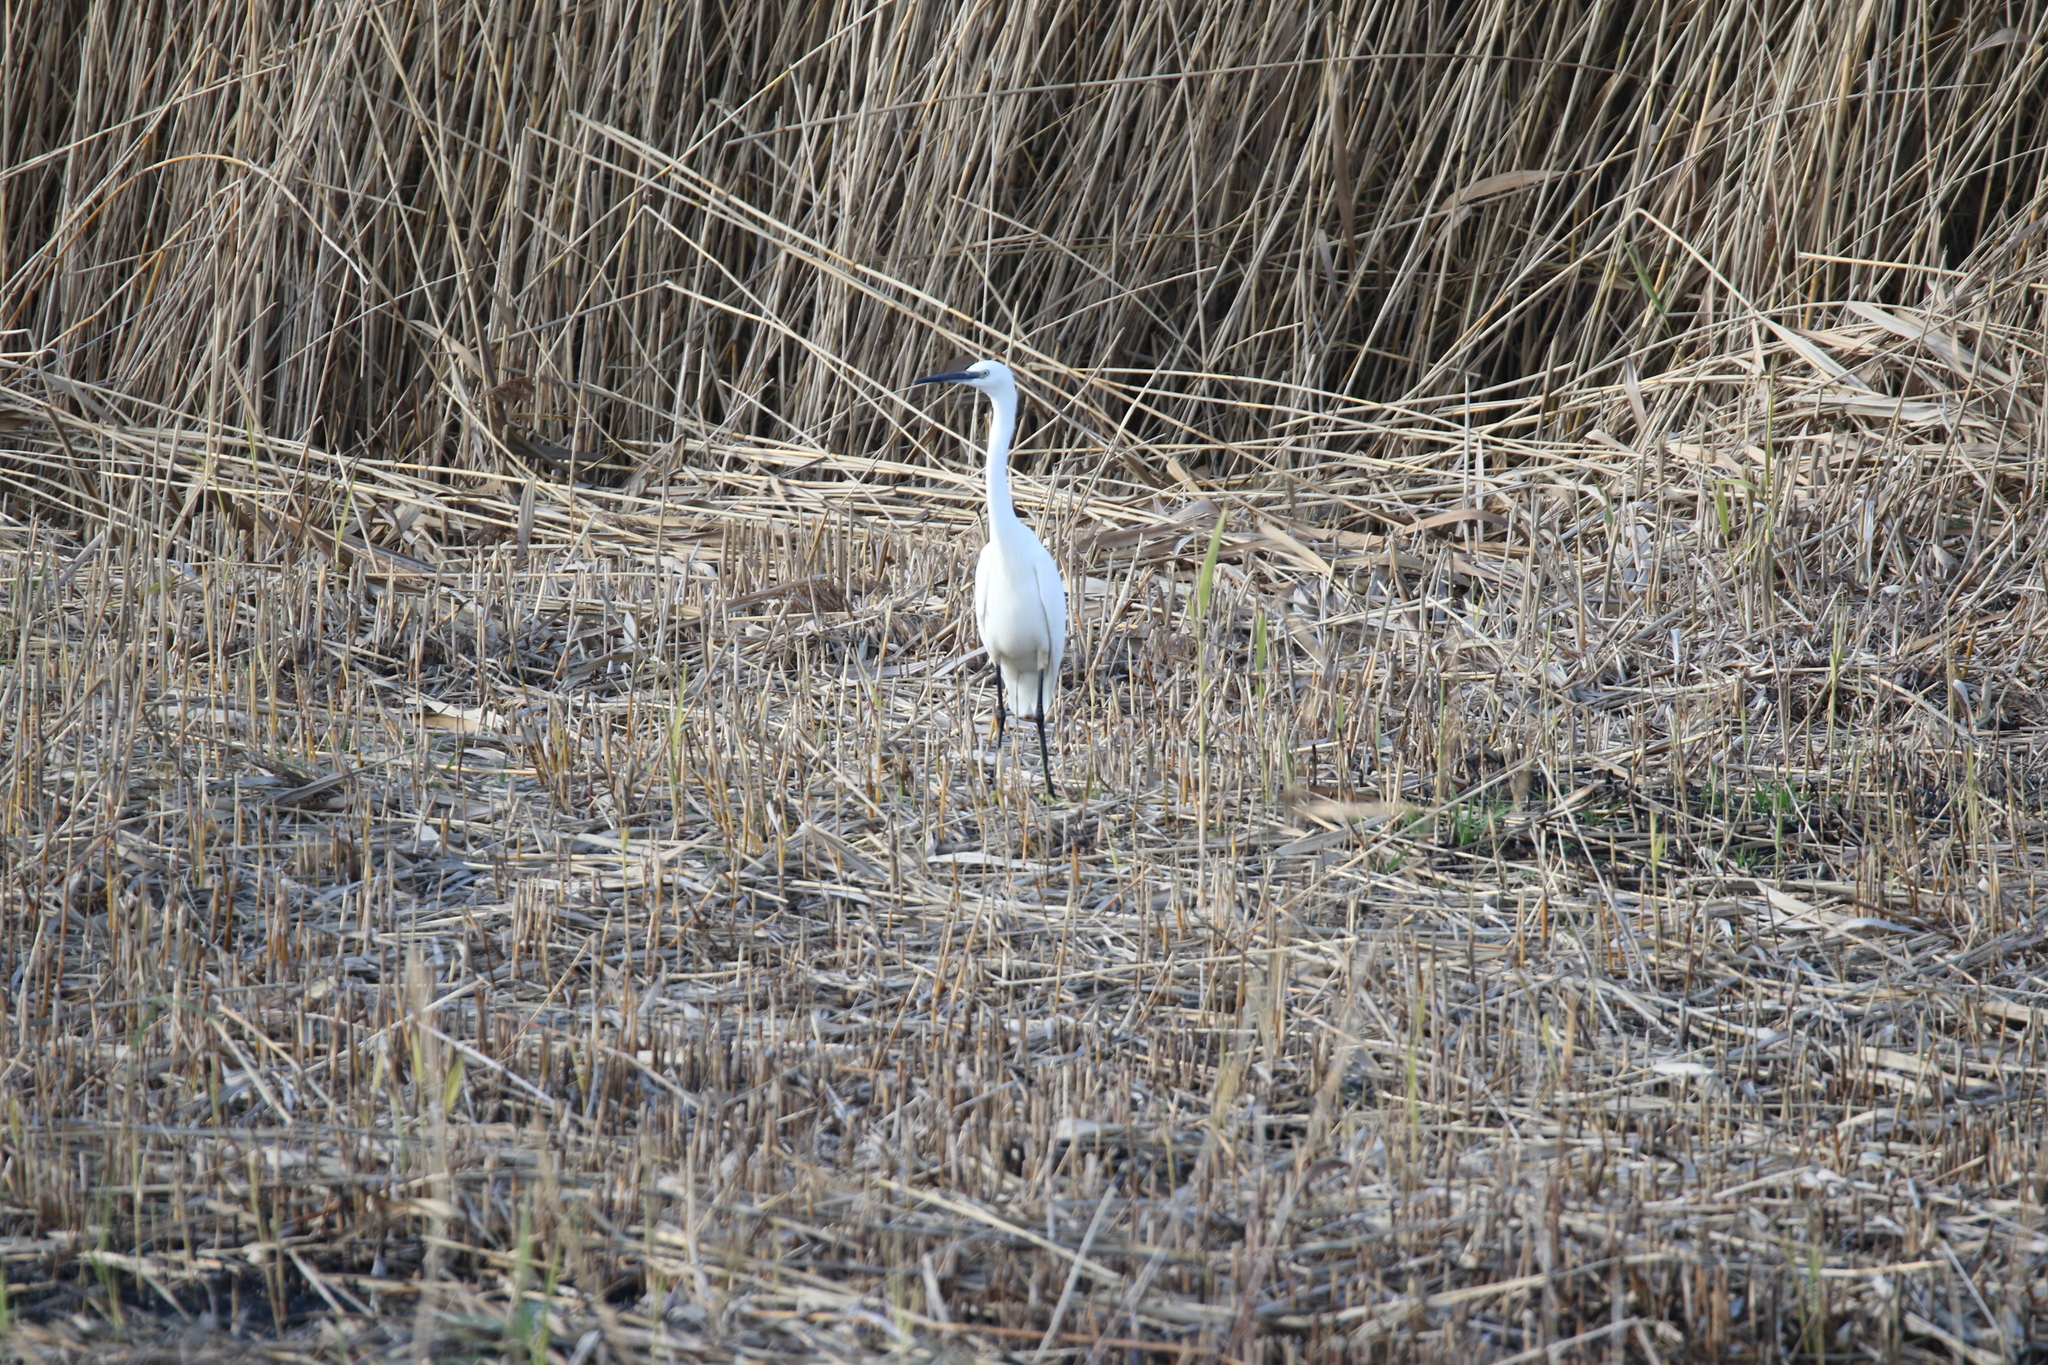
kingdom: Animalia
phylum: Chordata
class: Aves
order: Pelecaniformes
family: Ardeidae
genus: Egretta
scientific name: Egretta garzetta
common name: Little egret
